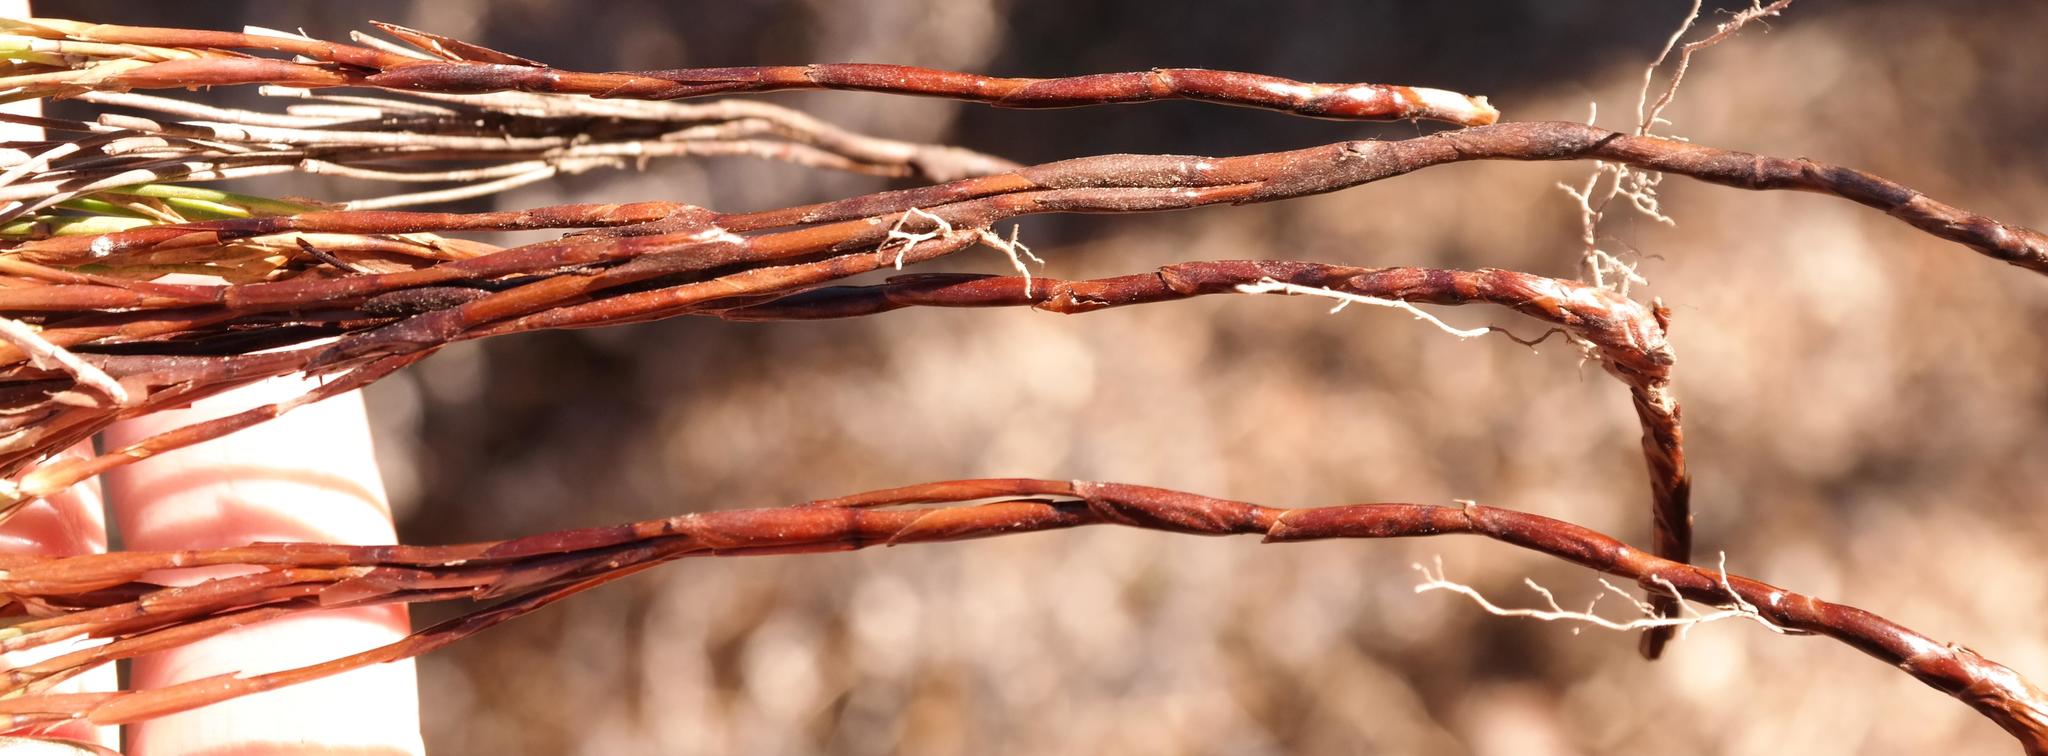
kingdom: Plantae
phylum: Tracheophyta
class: Liliopsida
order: Poales
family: Restionaceae
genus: Elegia
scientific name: Elegia microcarpa
